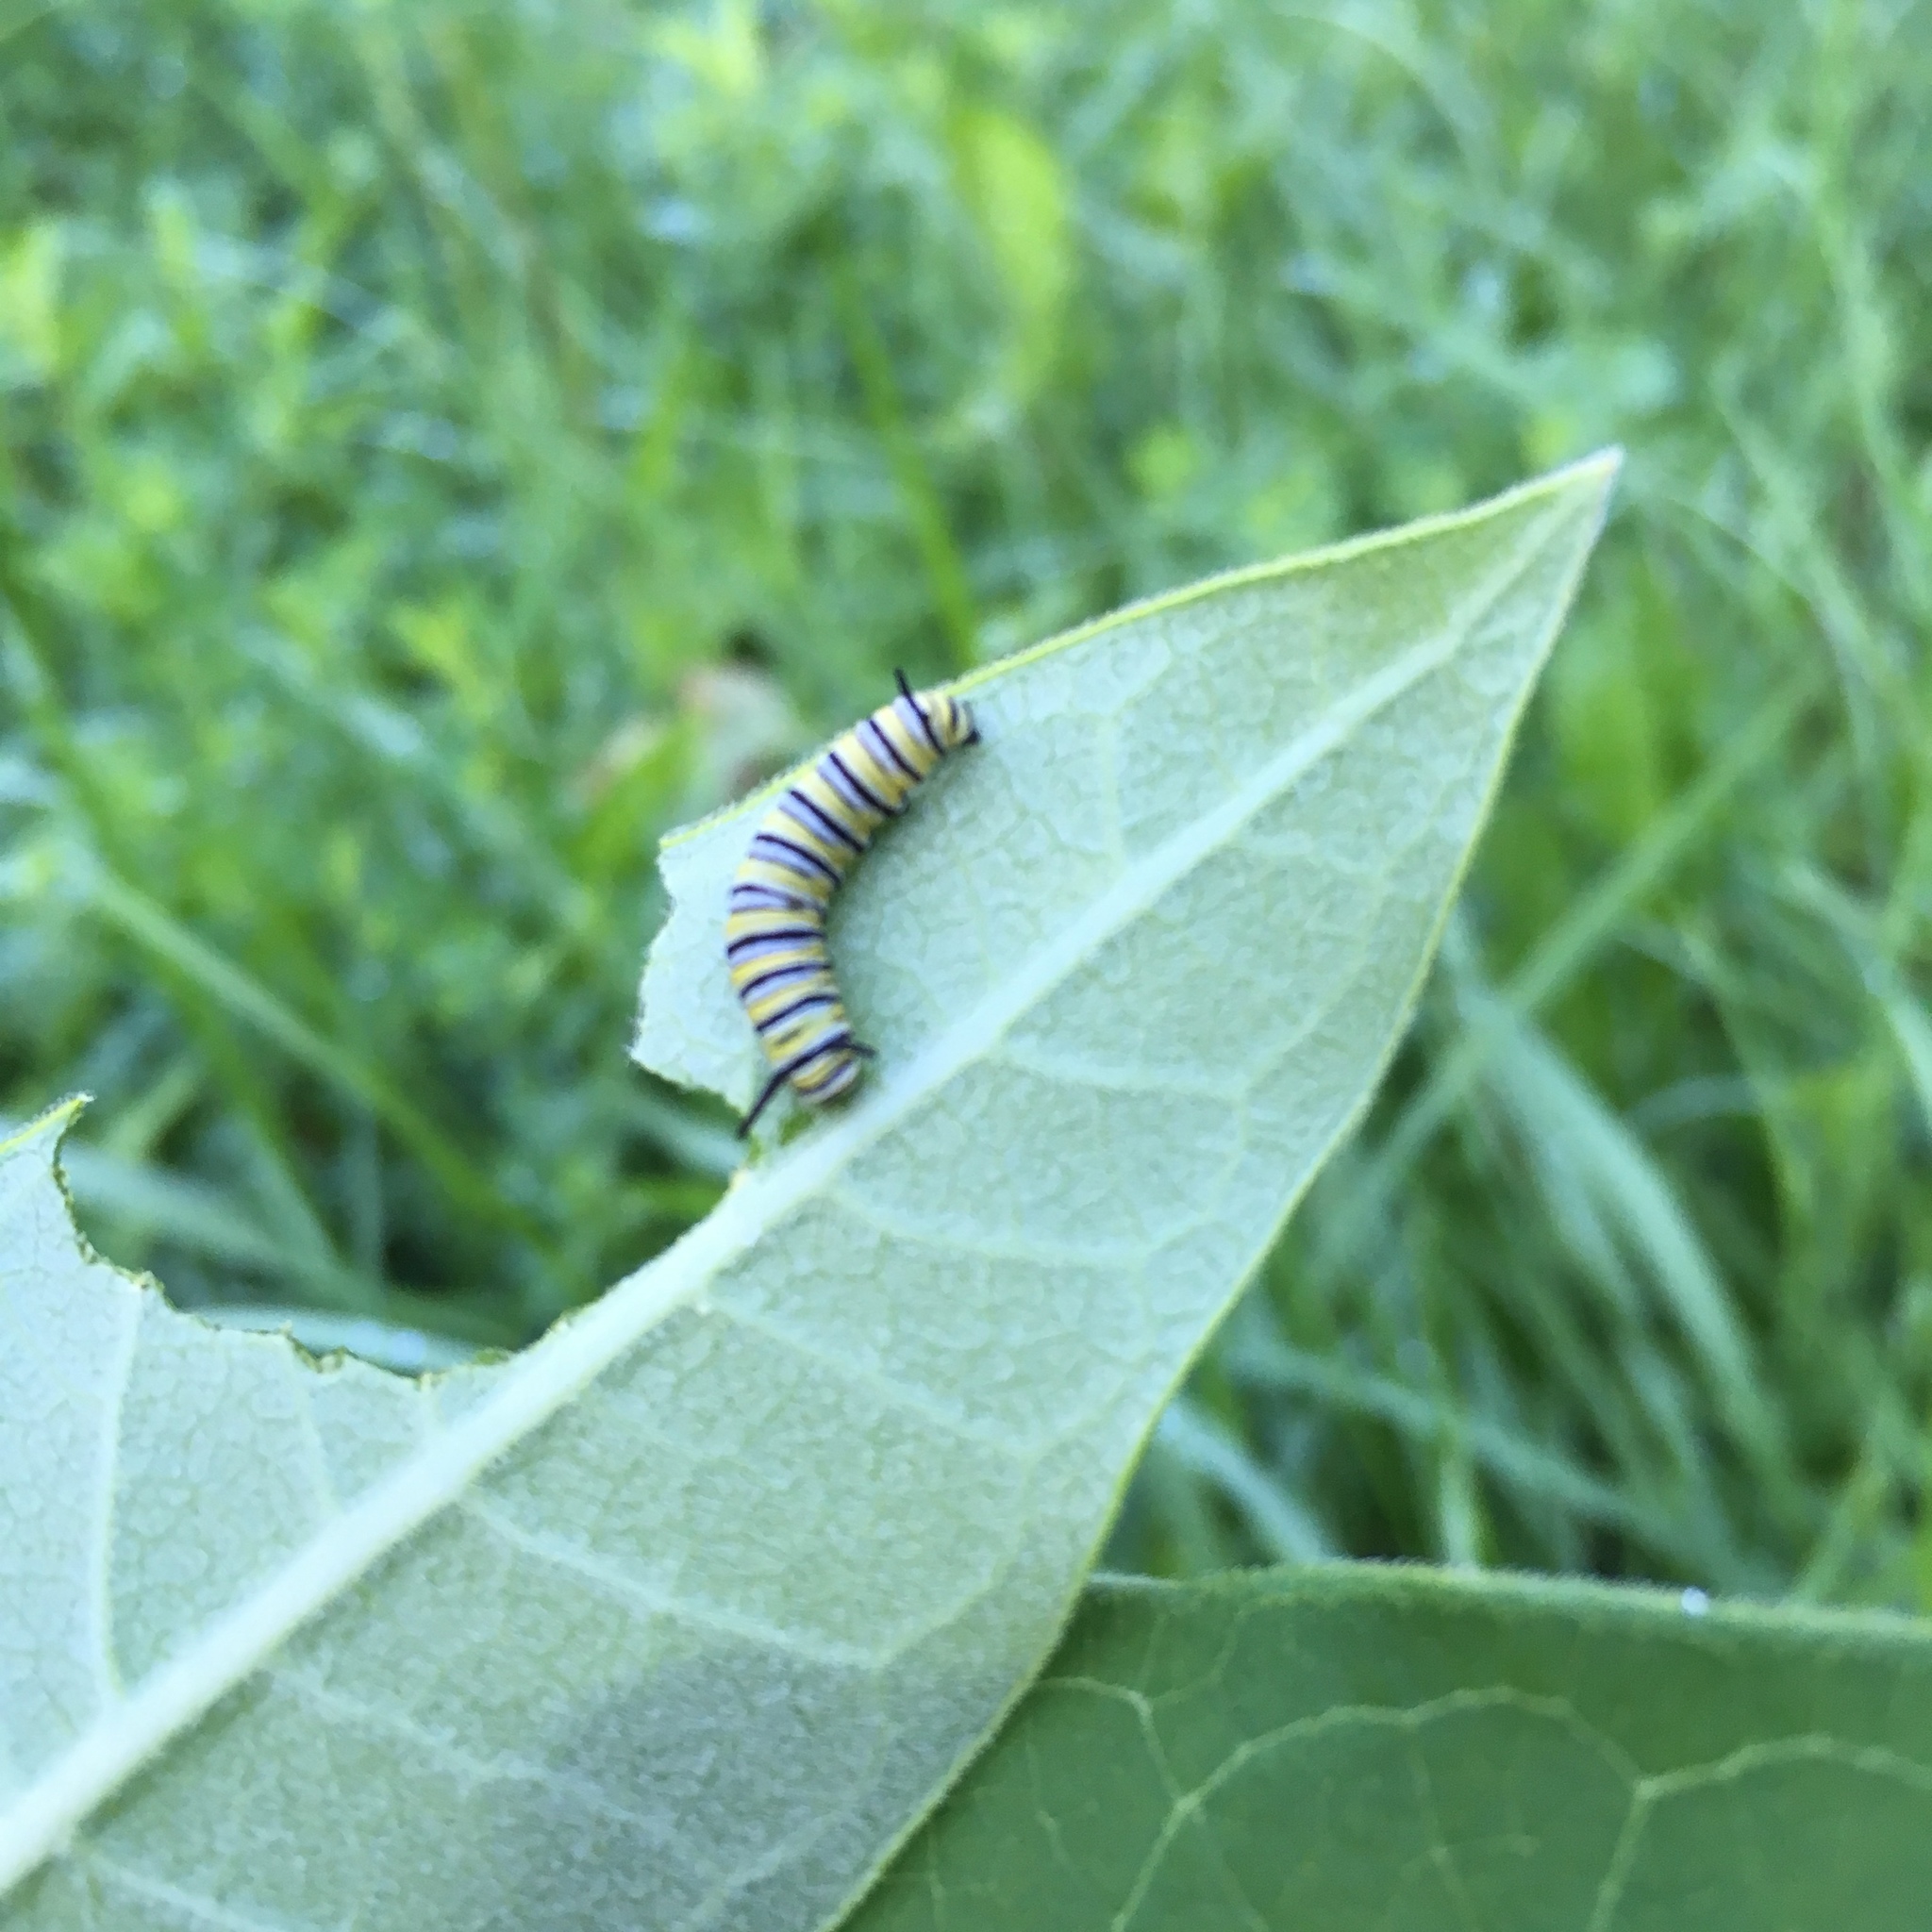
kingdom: Animalia
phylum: Arthropoda
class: Insecta
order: Lepidoptera
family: Nymphalidae
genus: Danaus
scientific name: Danaus plexippus
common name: Monarch
